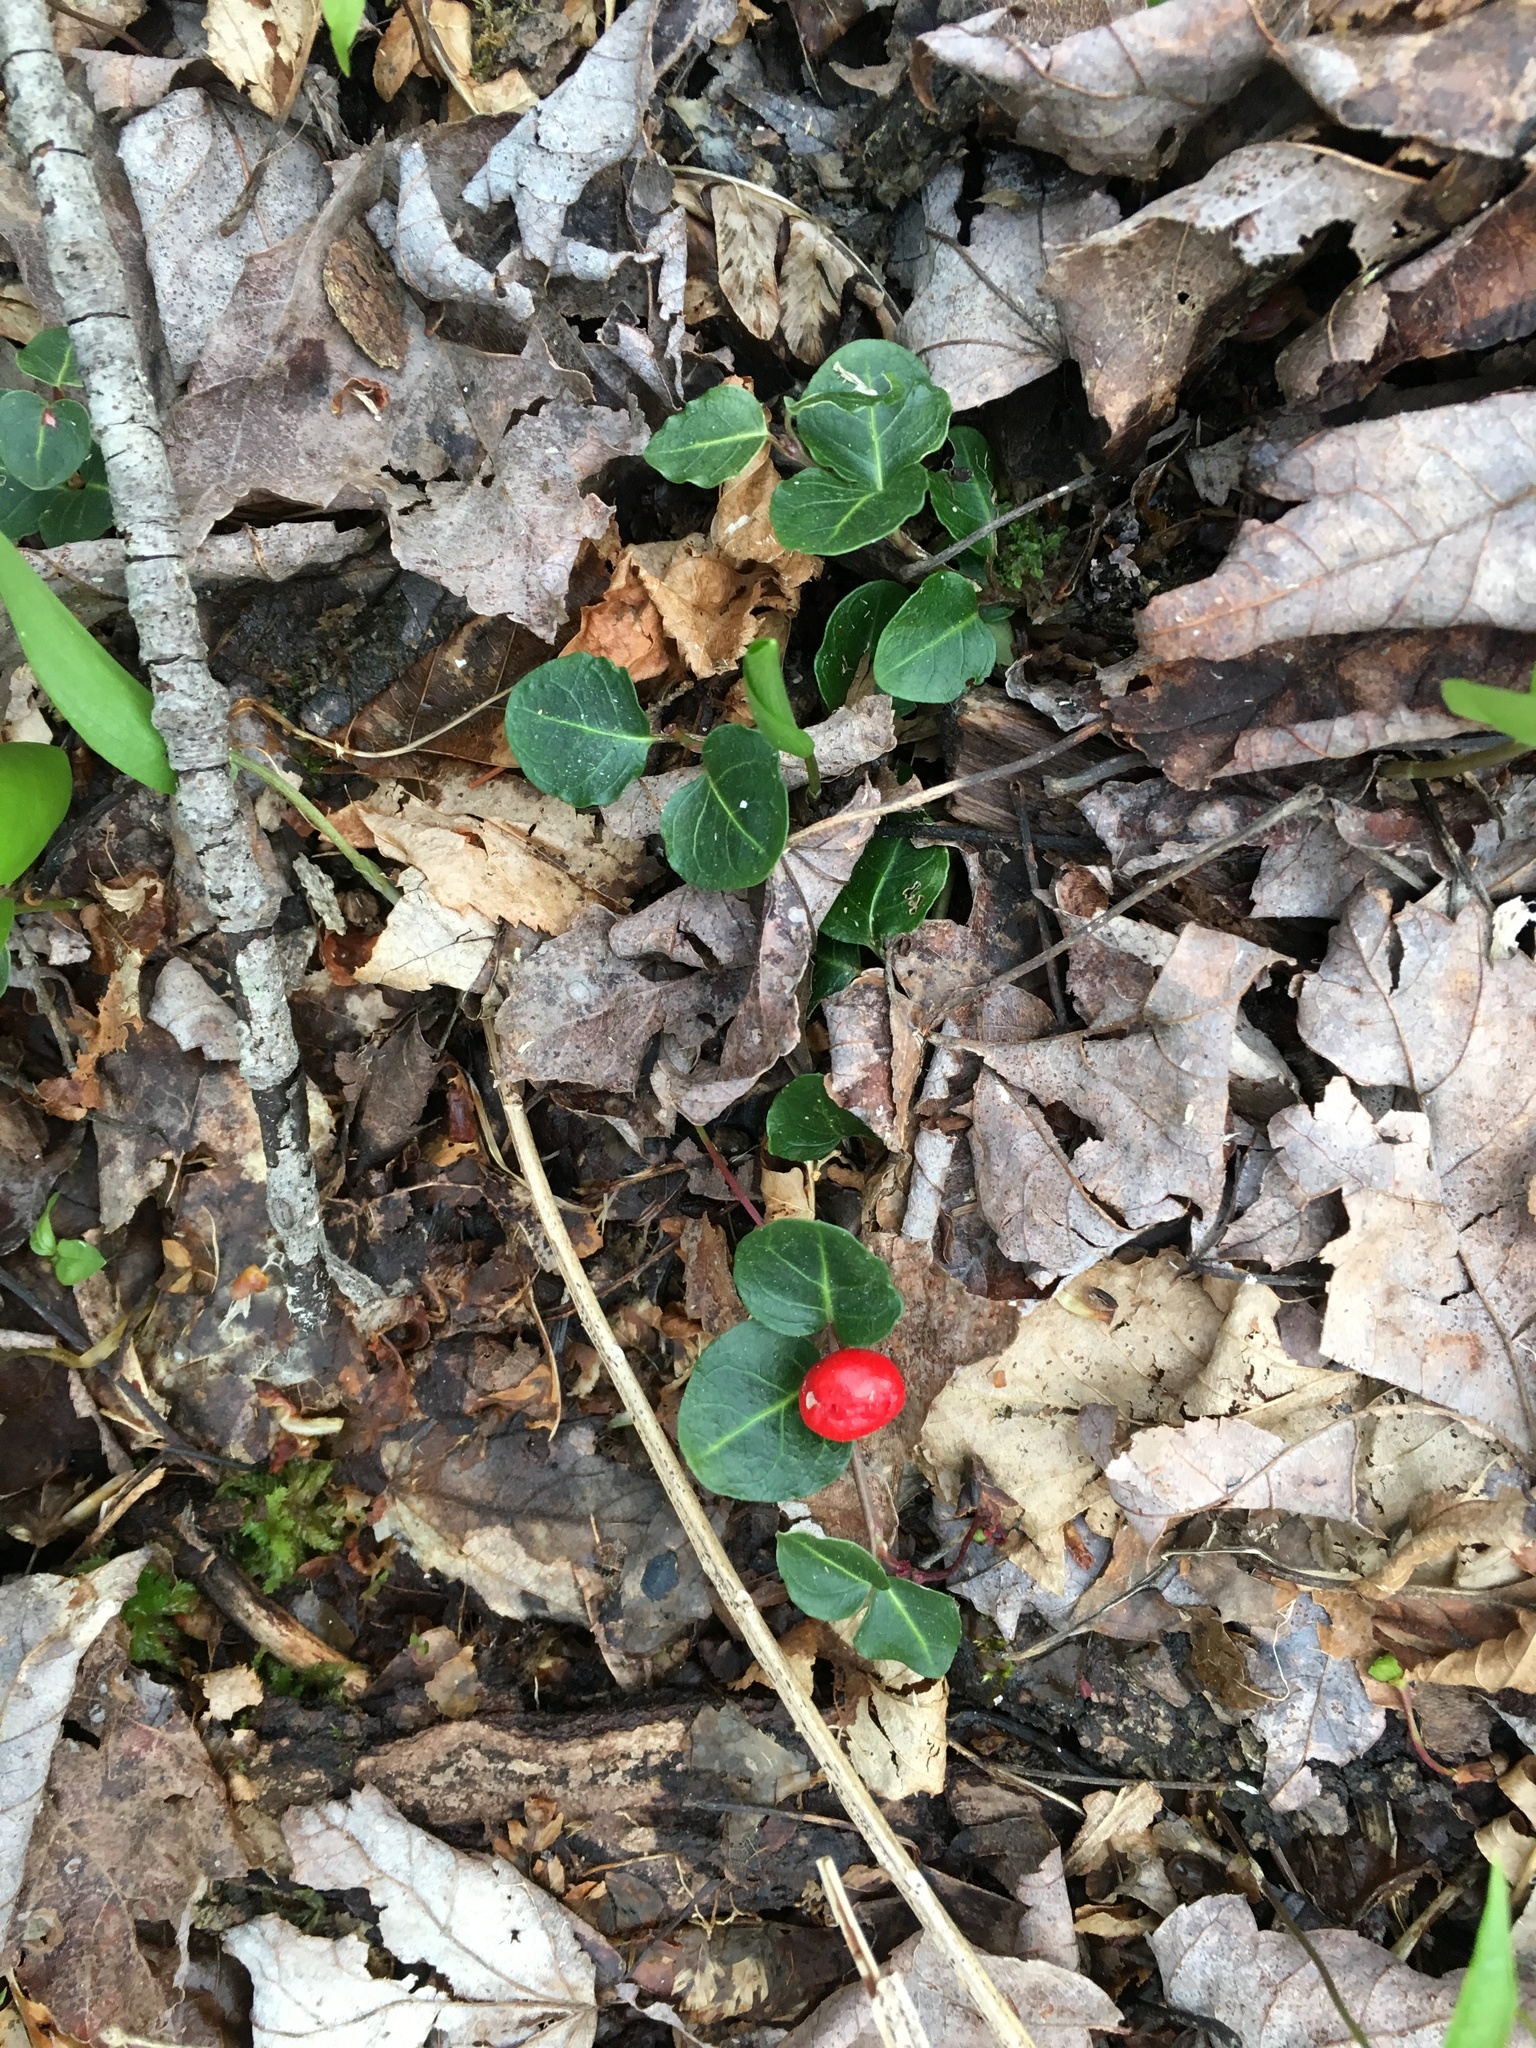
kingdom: Plantae
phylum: Tracheophyta
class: Magnoliopsida
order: Gentianales
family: Rubiaceae
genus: Mitchella
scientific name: Mitchella repens
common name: Partridge-berry
